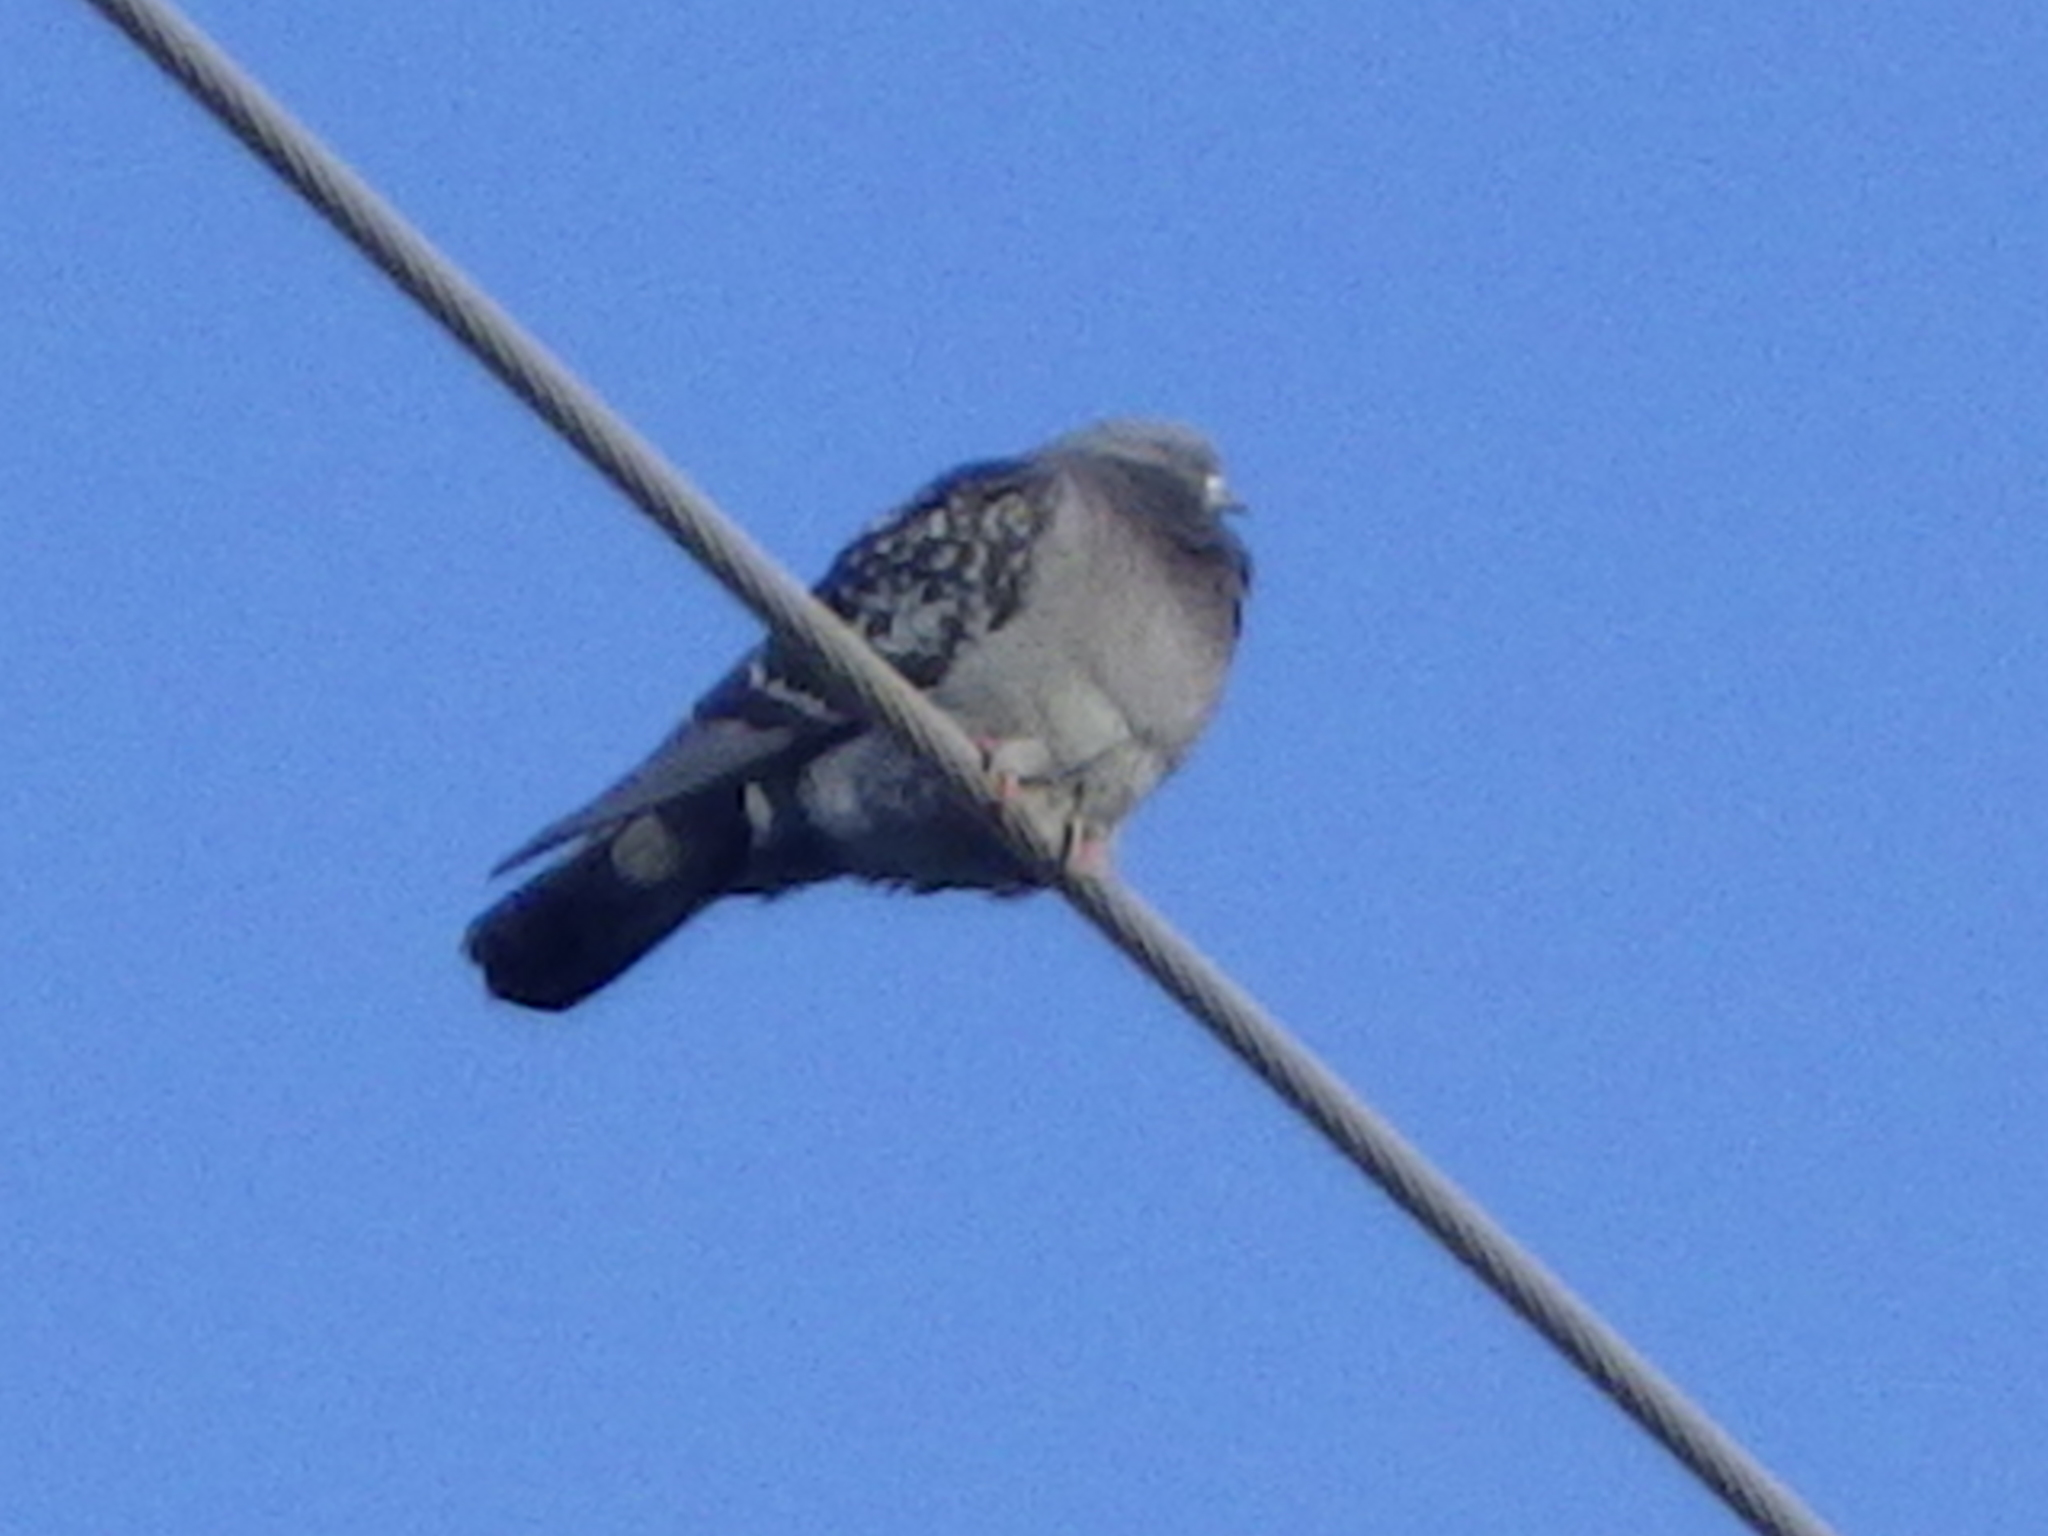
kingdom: Animalia
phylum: Chordata
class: Aves
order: Columbiformes
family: Columbidae
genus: Columba
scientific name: Columba livia
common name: Rock pigeon
